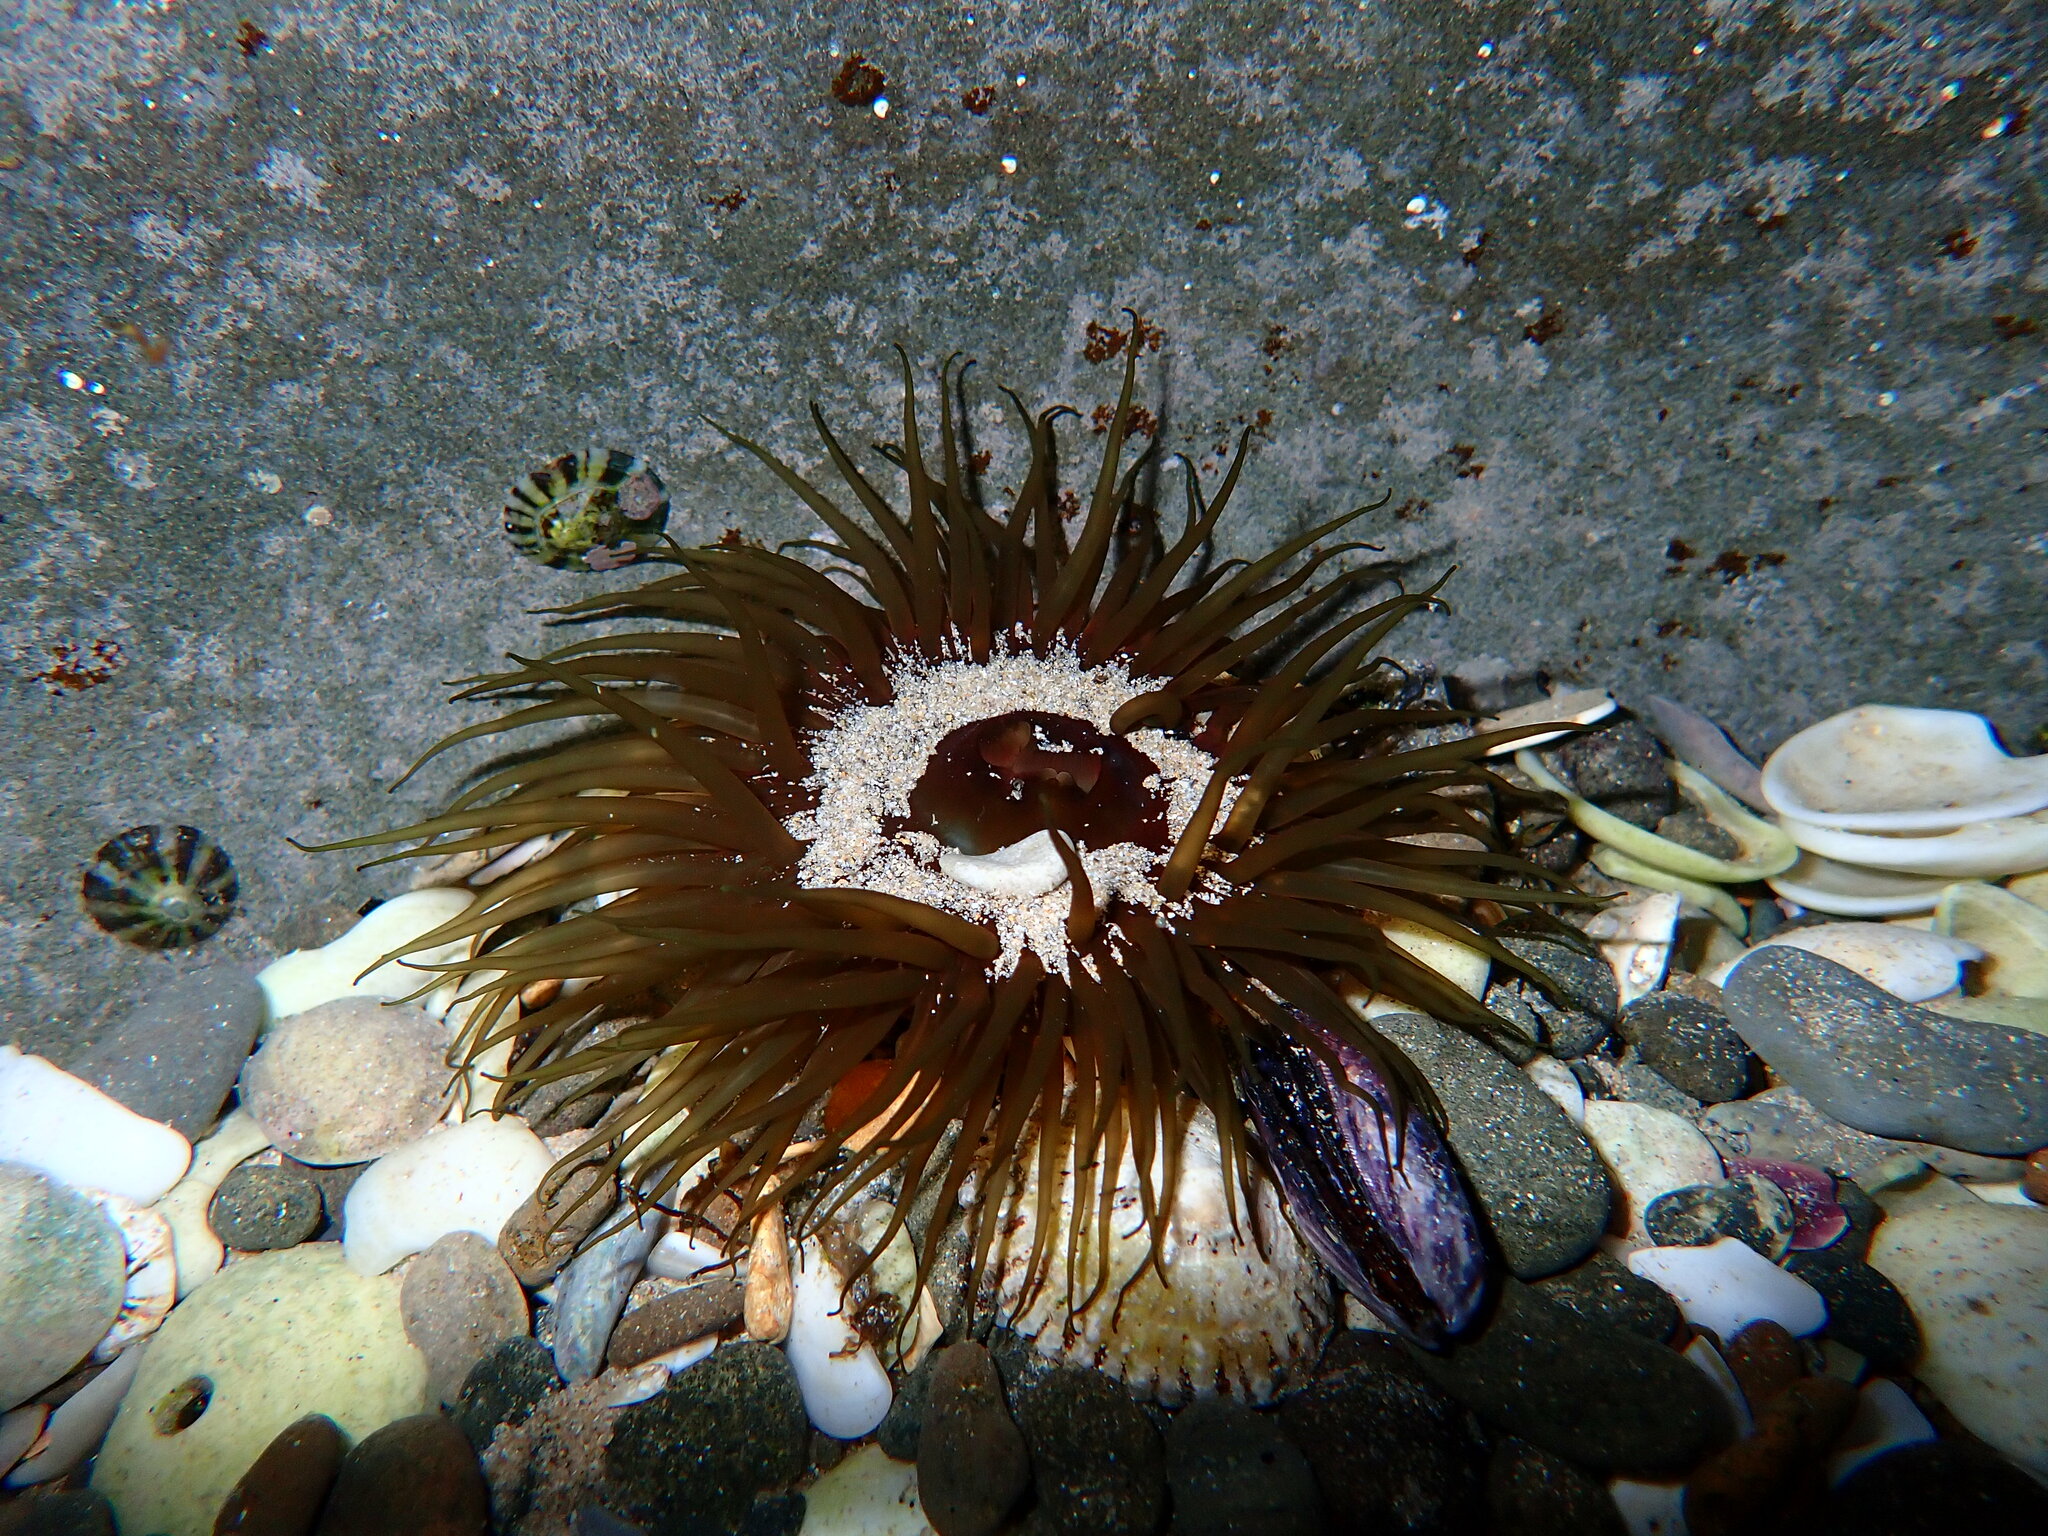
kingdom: Animalia
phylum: Cnidaria
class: Anthozoa
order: Actiniaria
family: Actiniidae
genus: Aulactinia
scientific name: Aulactinia veratra
